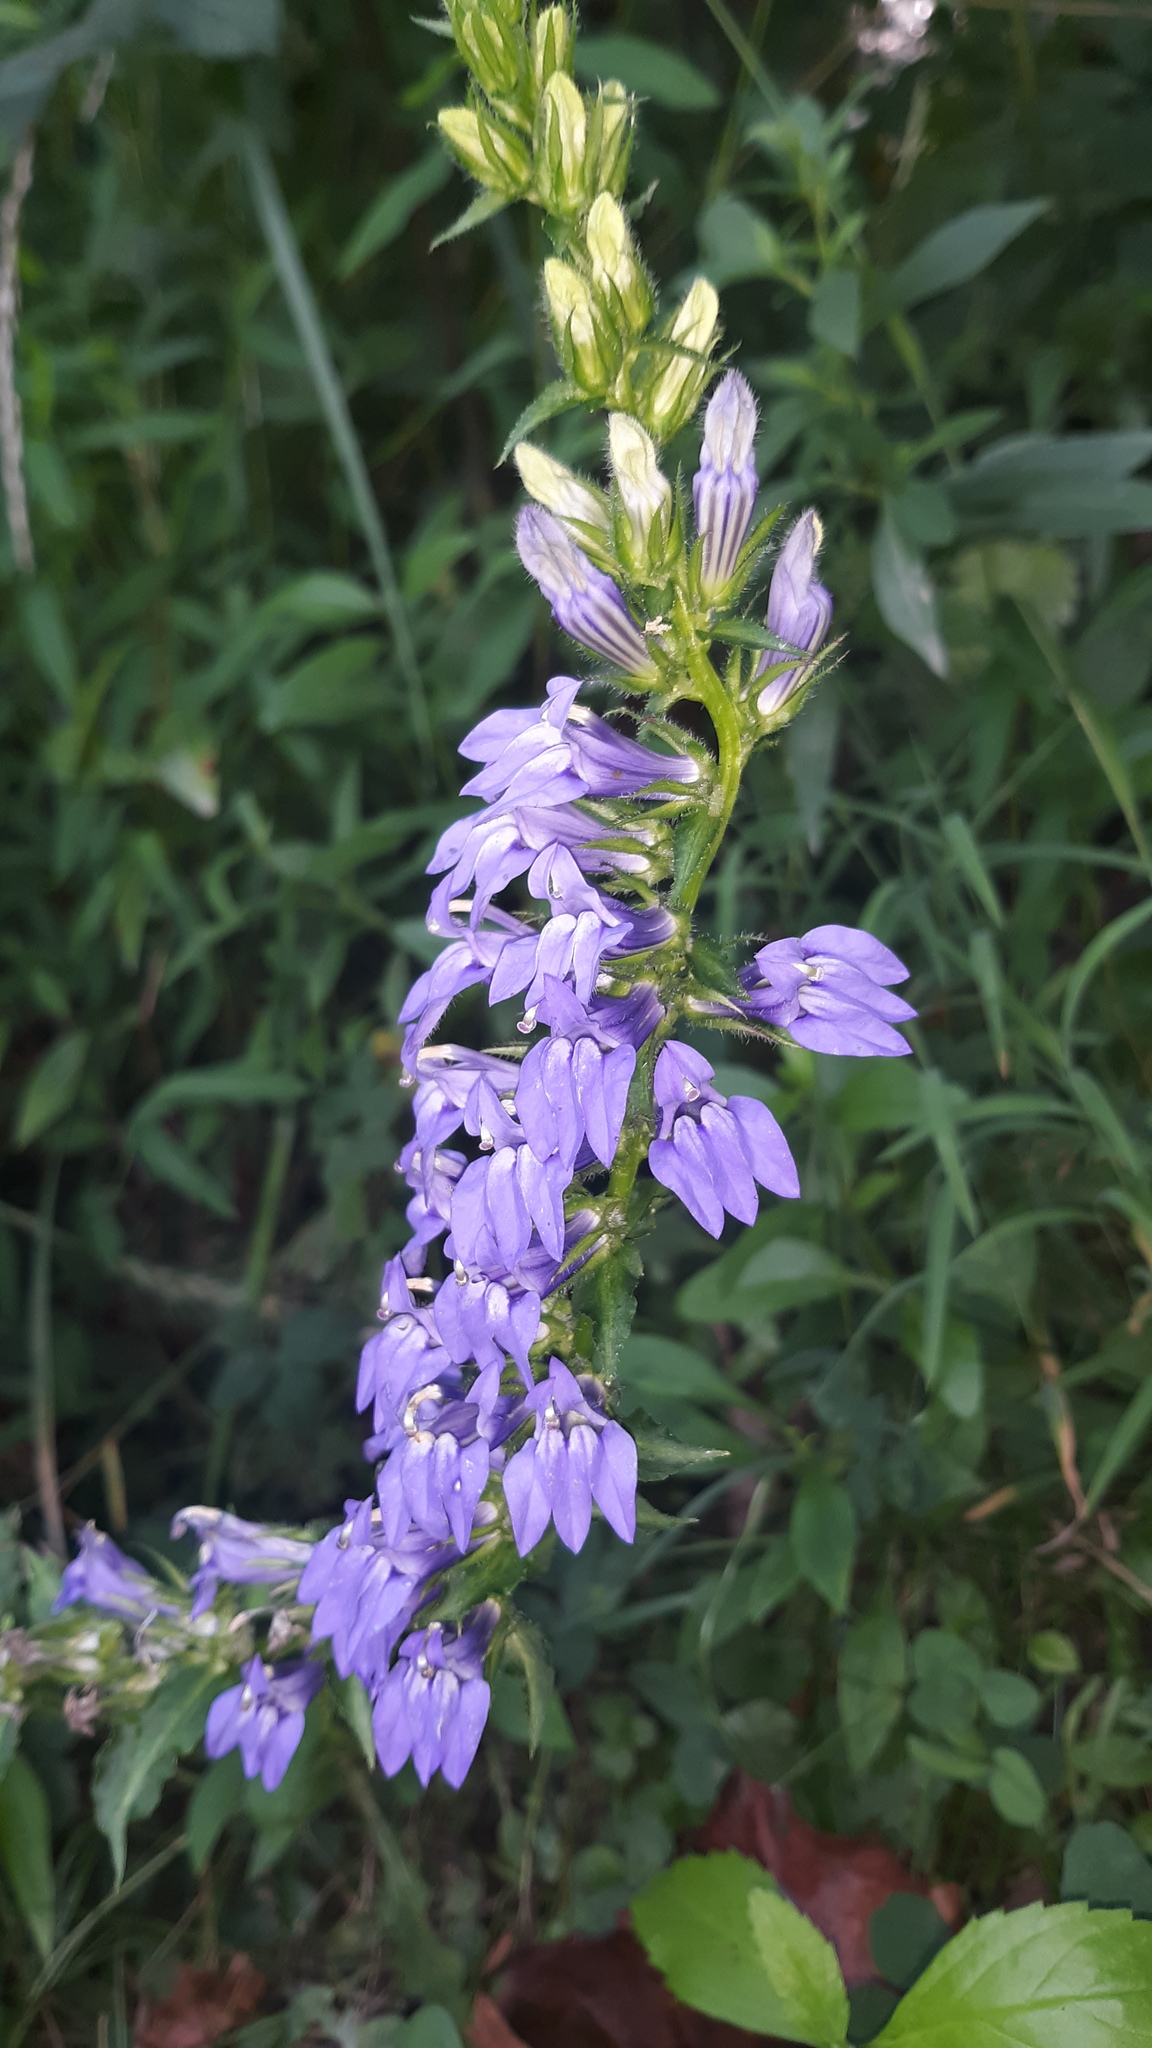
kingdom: Plantae
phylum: Tracheophyta
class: Magnoliopsida
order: Asterales
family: Campanulaceae
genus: Lobelia
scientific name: Lobelia siphilitica
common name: Great lobelia
